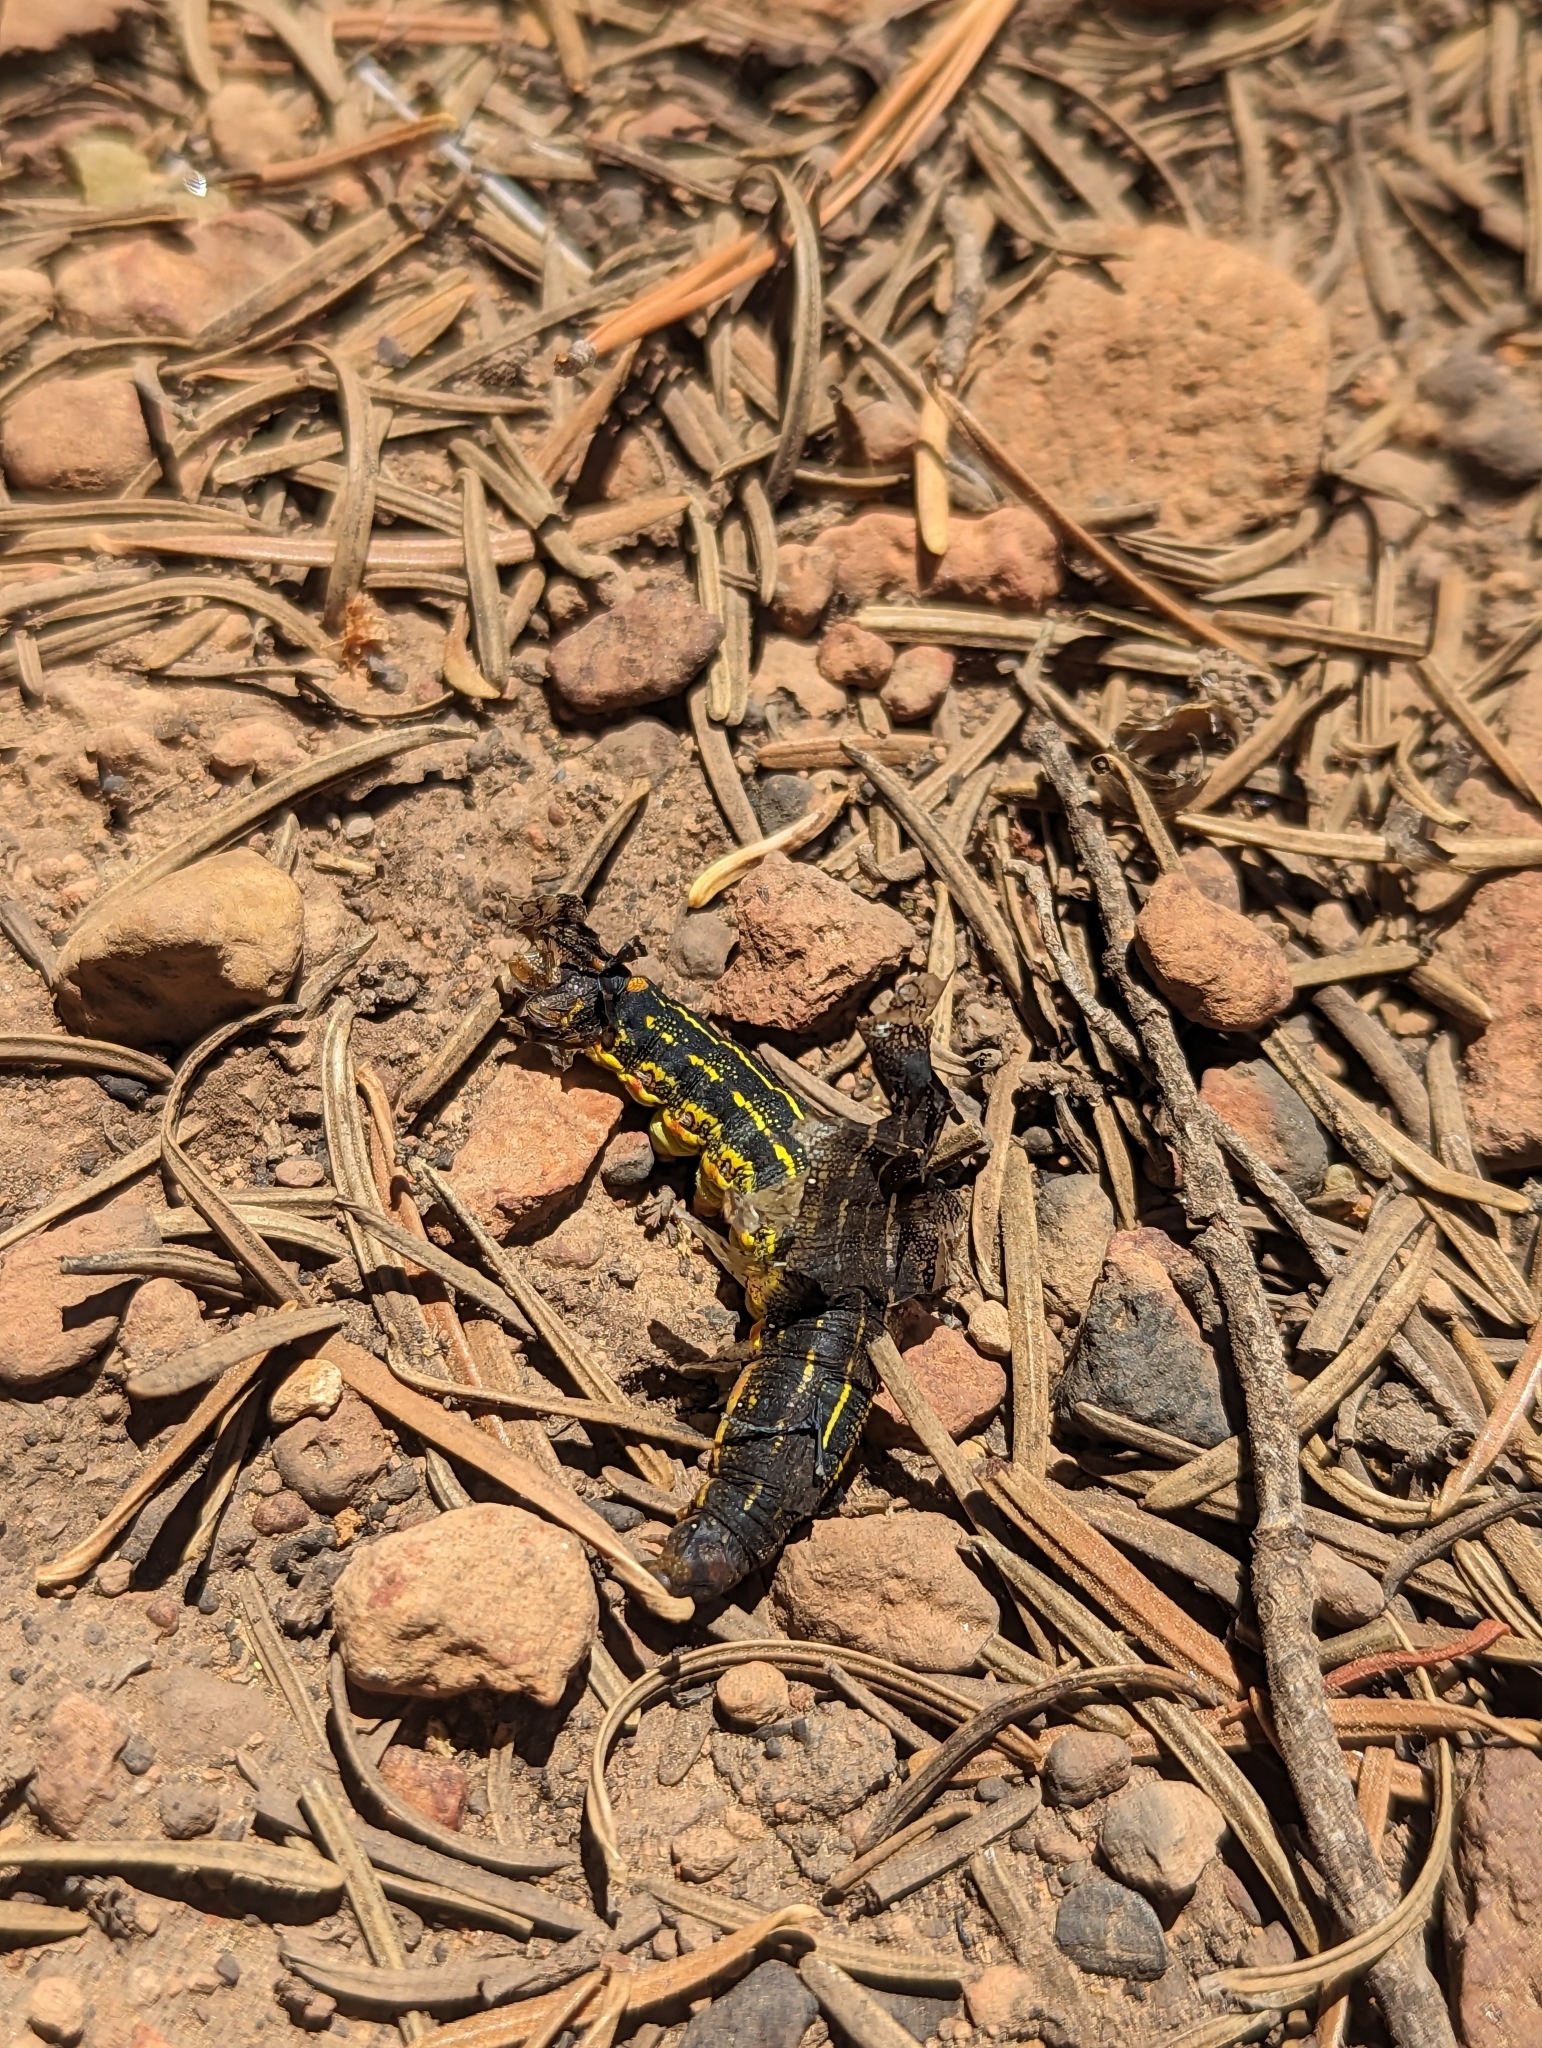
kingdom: Animalia
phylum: Arthropoda
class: Insecta
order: Lepidoptera
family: Sphingidae
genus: Hyles
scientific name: Hyles lineata
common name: White-lined sphinx
